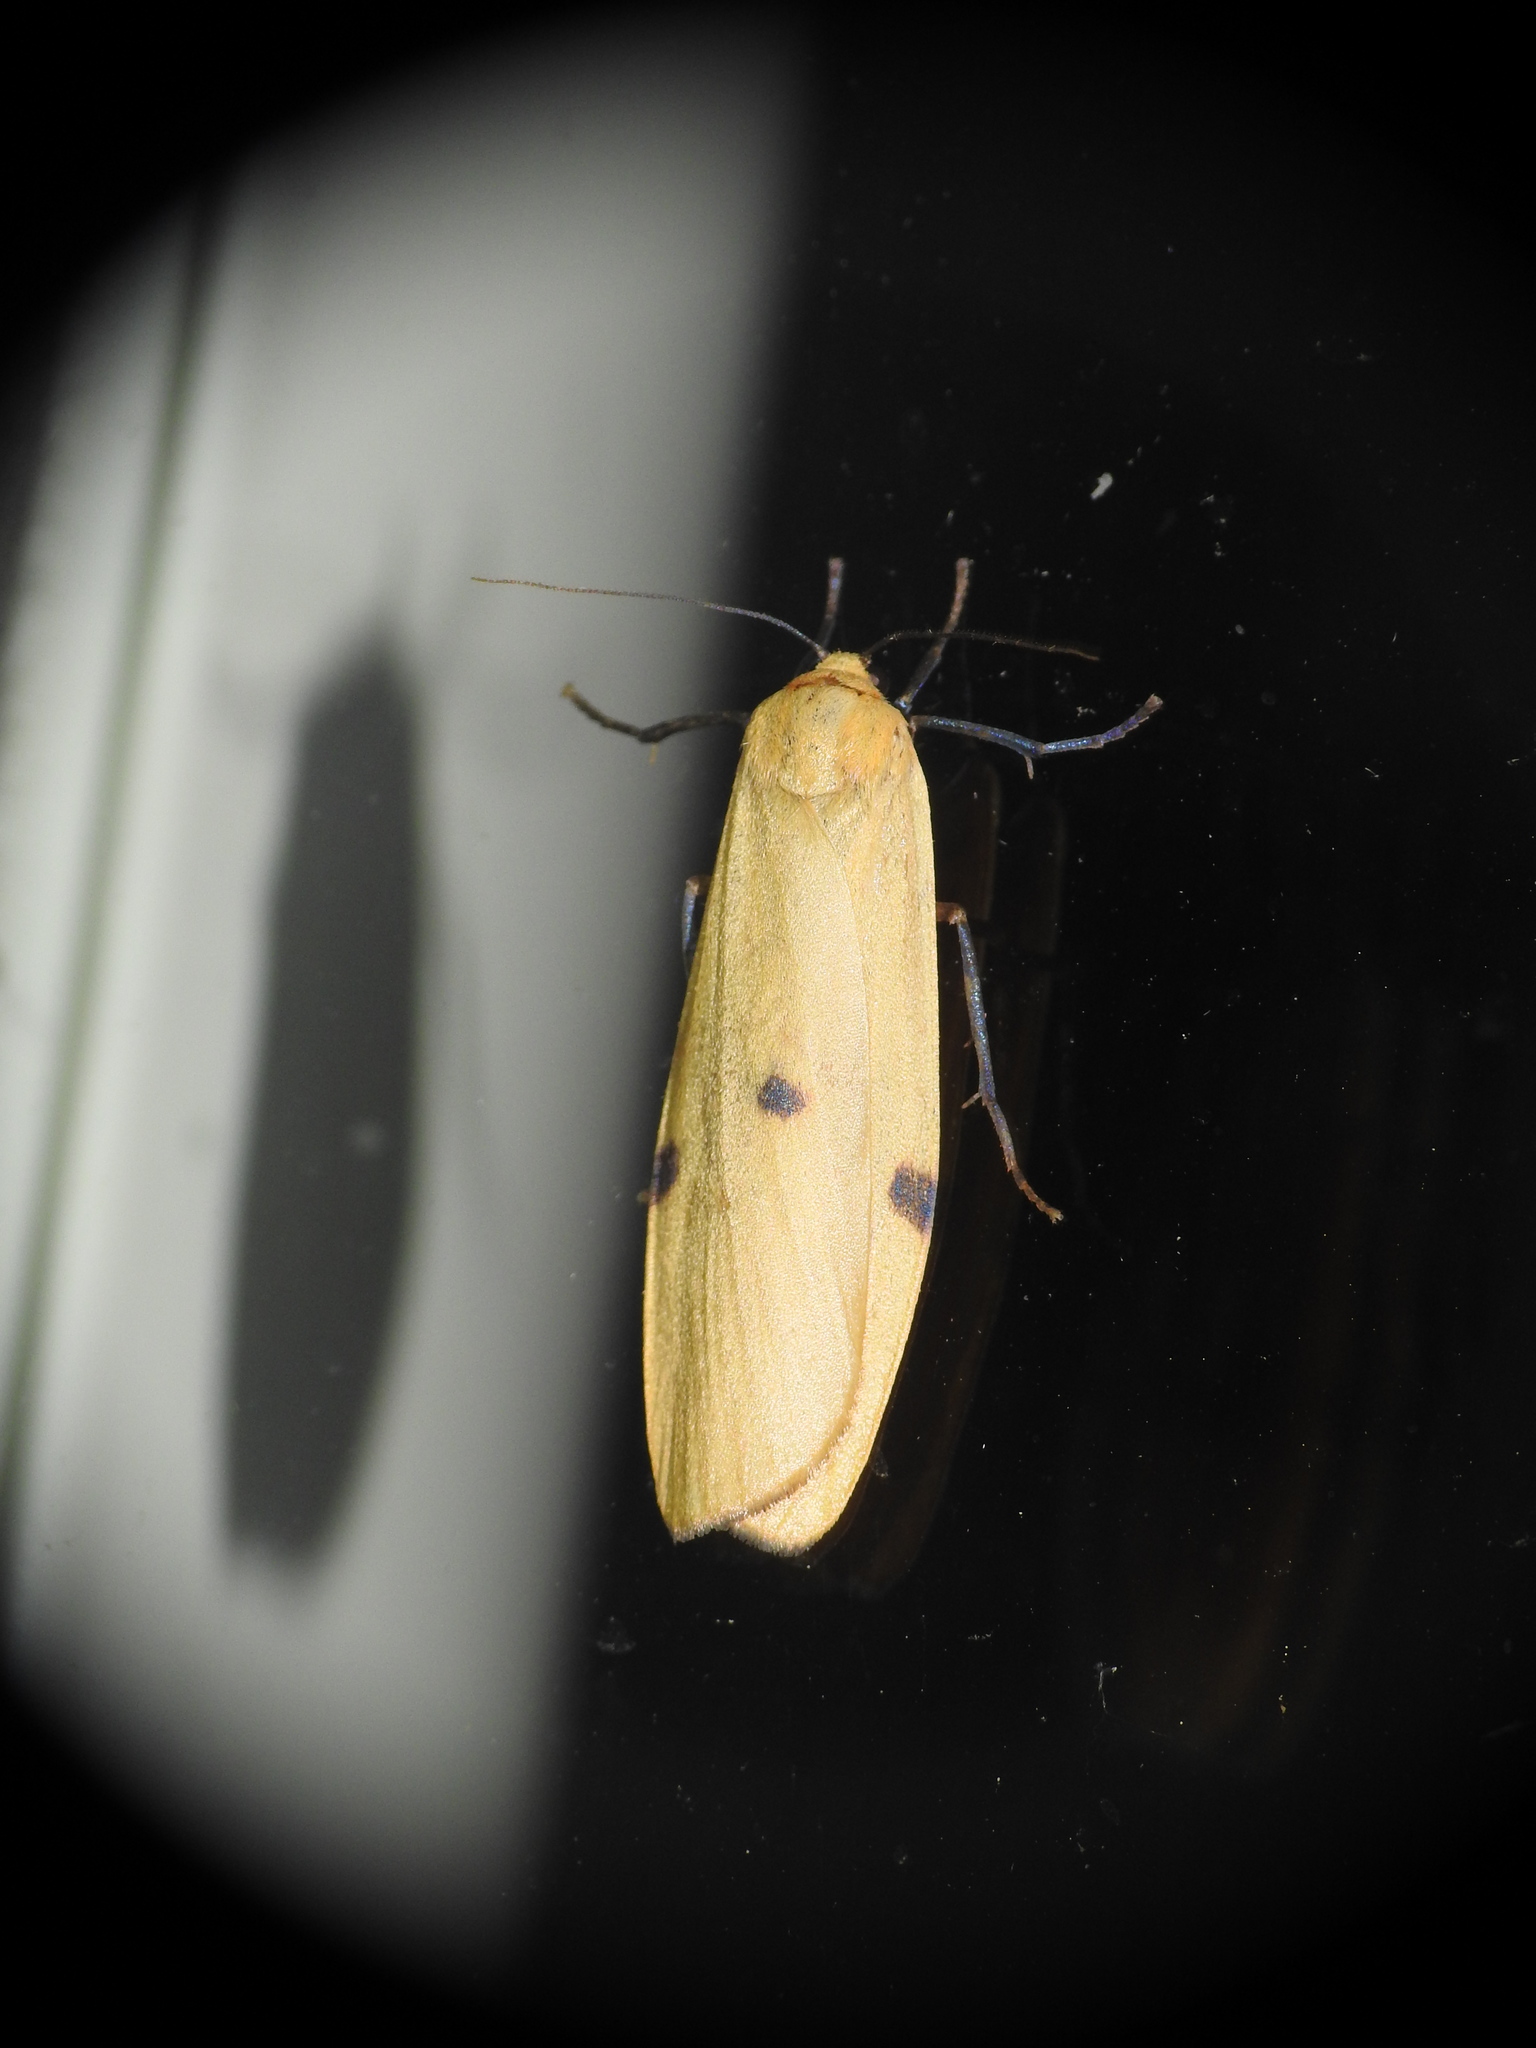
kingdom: Animalia
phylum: Arthropoda
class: Insecta
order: Lepidoptera
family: Erebidae
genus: Lithosia
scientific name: Lithosia quadra
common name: Four-spotted footman
